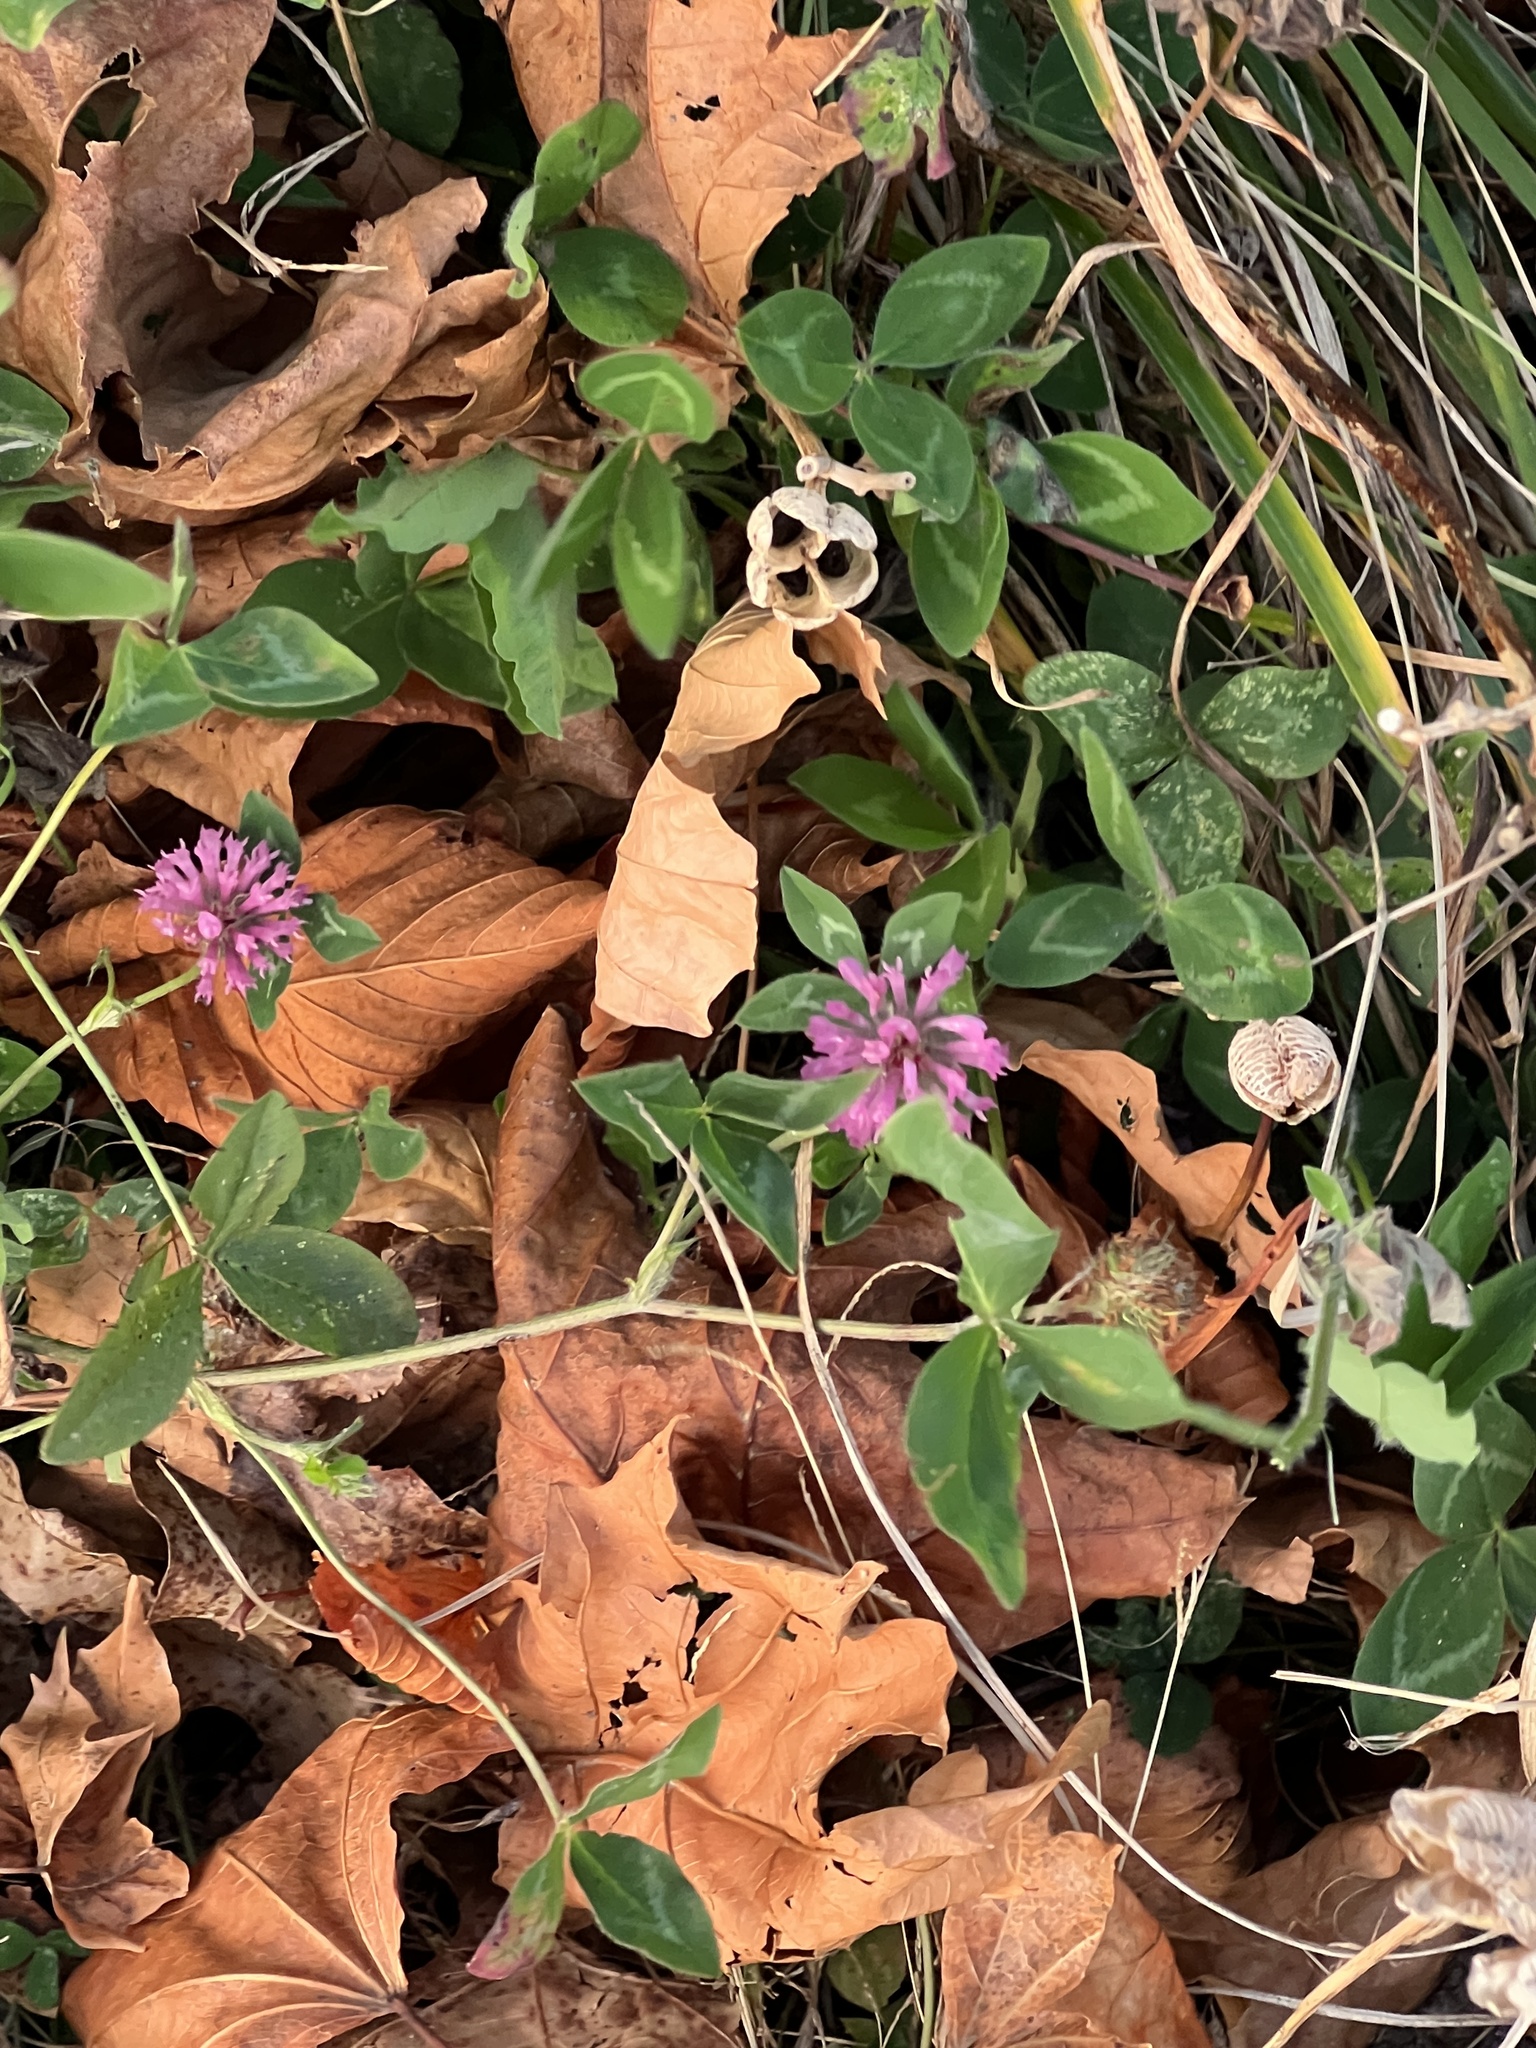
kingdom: Plantae
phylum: Tracheophyta
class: Magnoliopsida
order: Fabales
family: Fabaceae
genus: Trifolium
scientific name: Trifolium pratense
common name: Red clover
